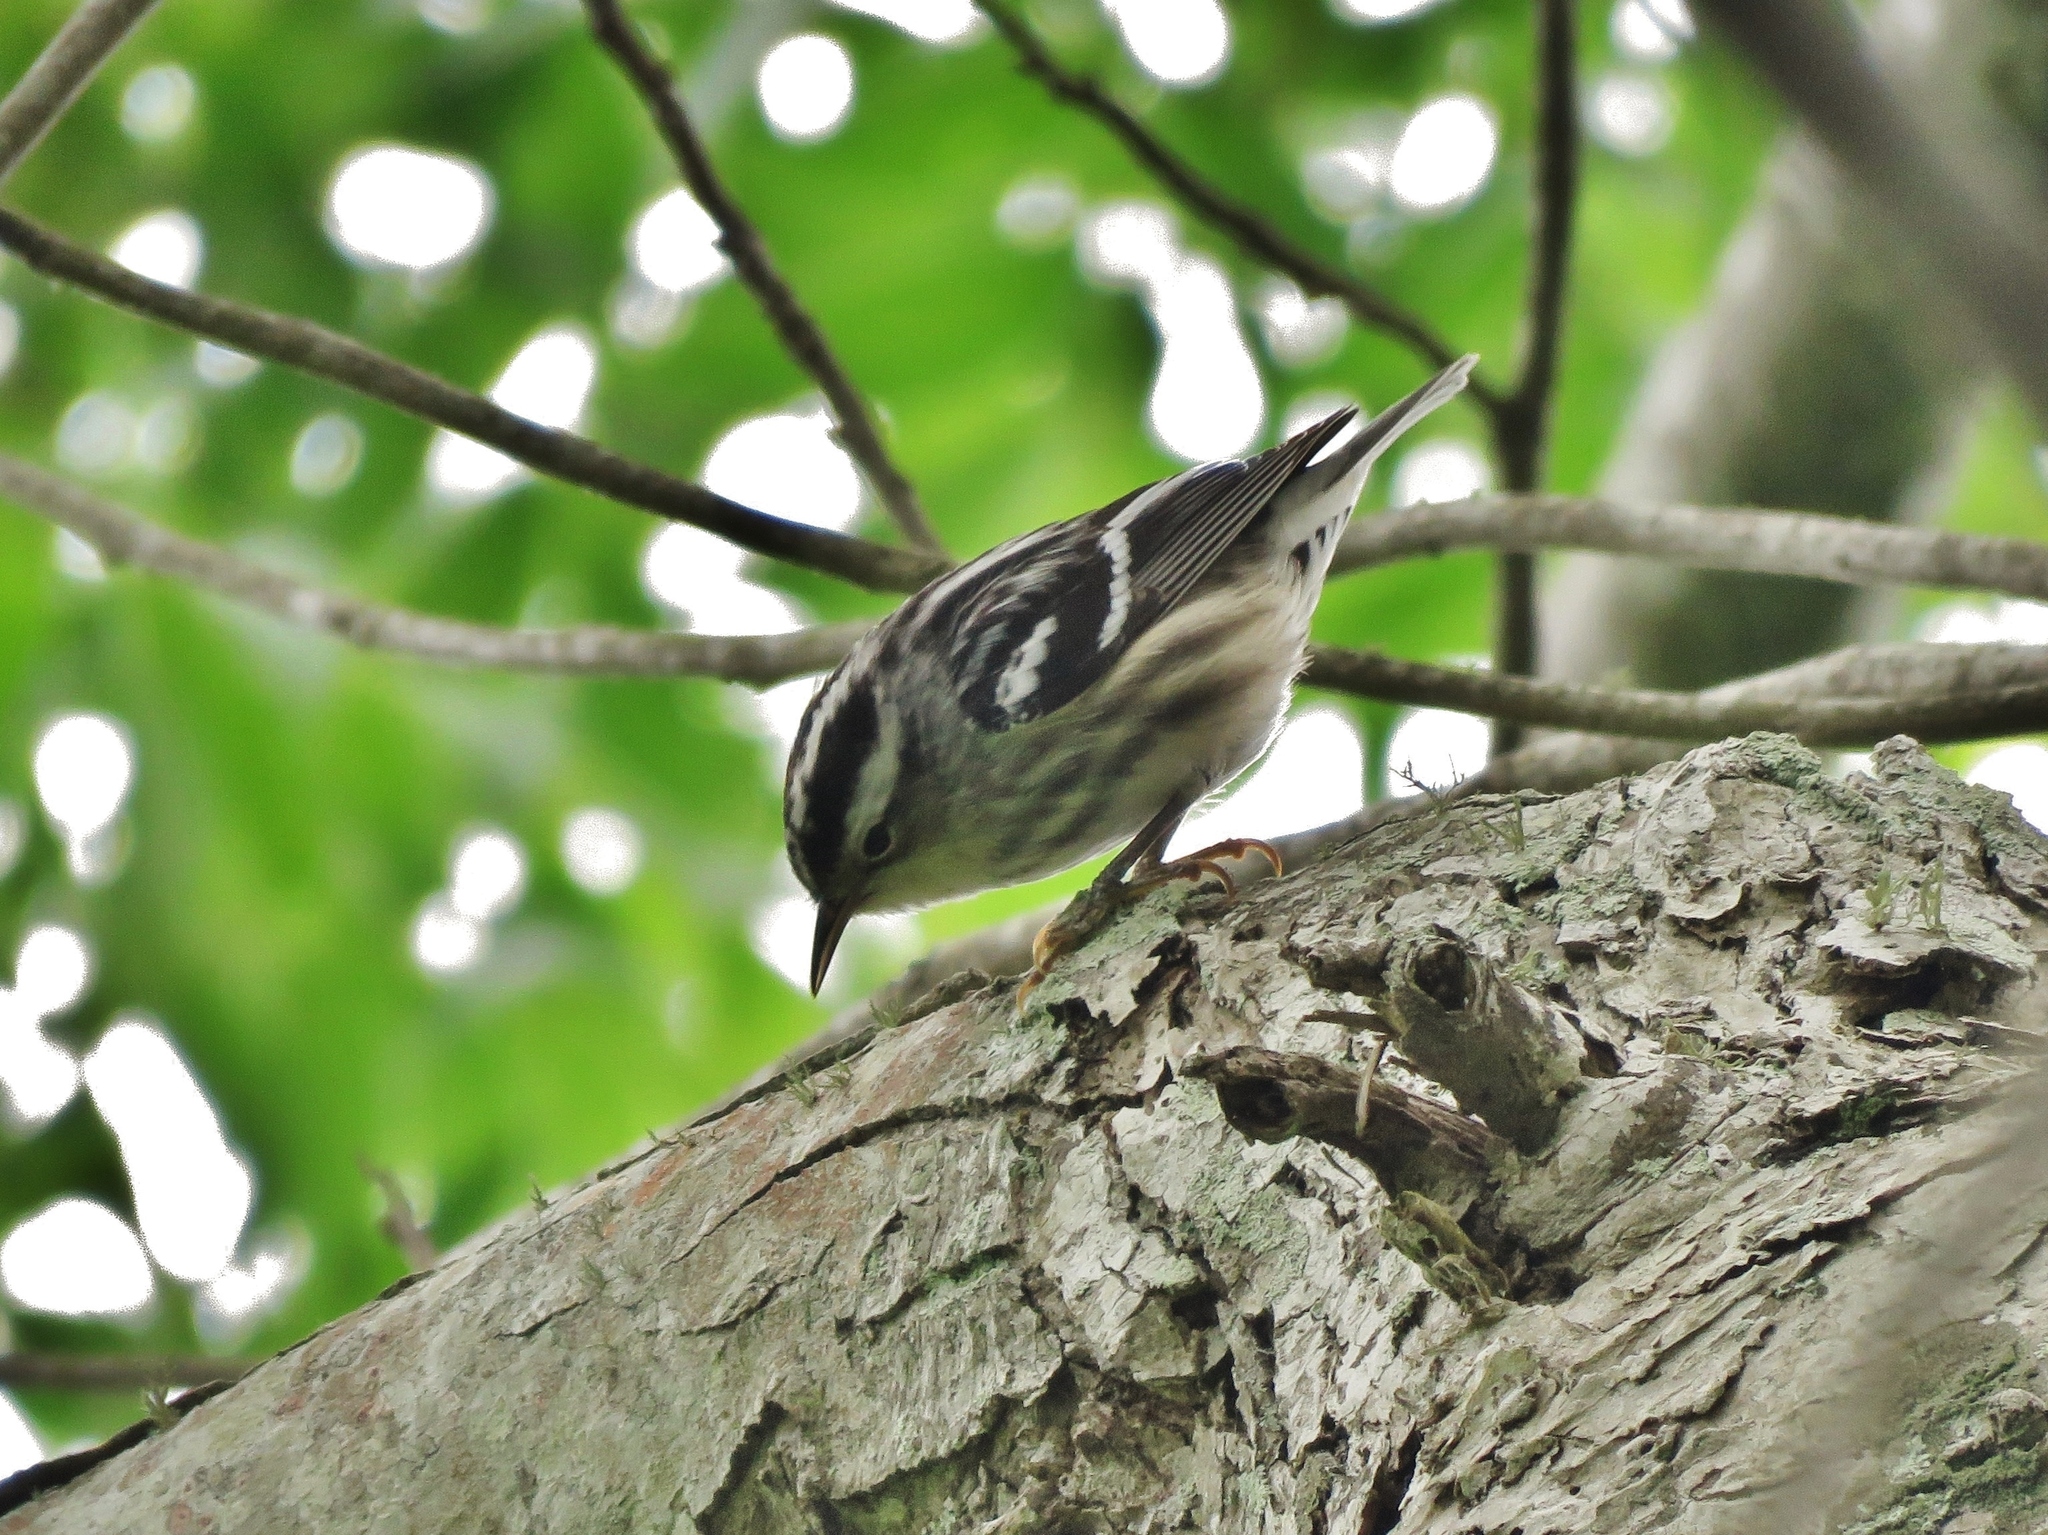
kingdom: Animalia
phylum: Chordata
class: Aves
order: Passeriformes
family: Parulidae
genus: Mniotilta
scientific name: Mniotilta varia
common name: Black-and-white warbler
